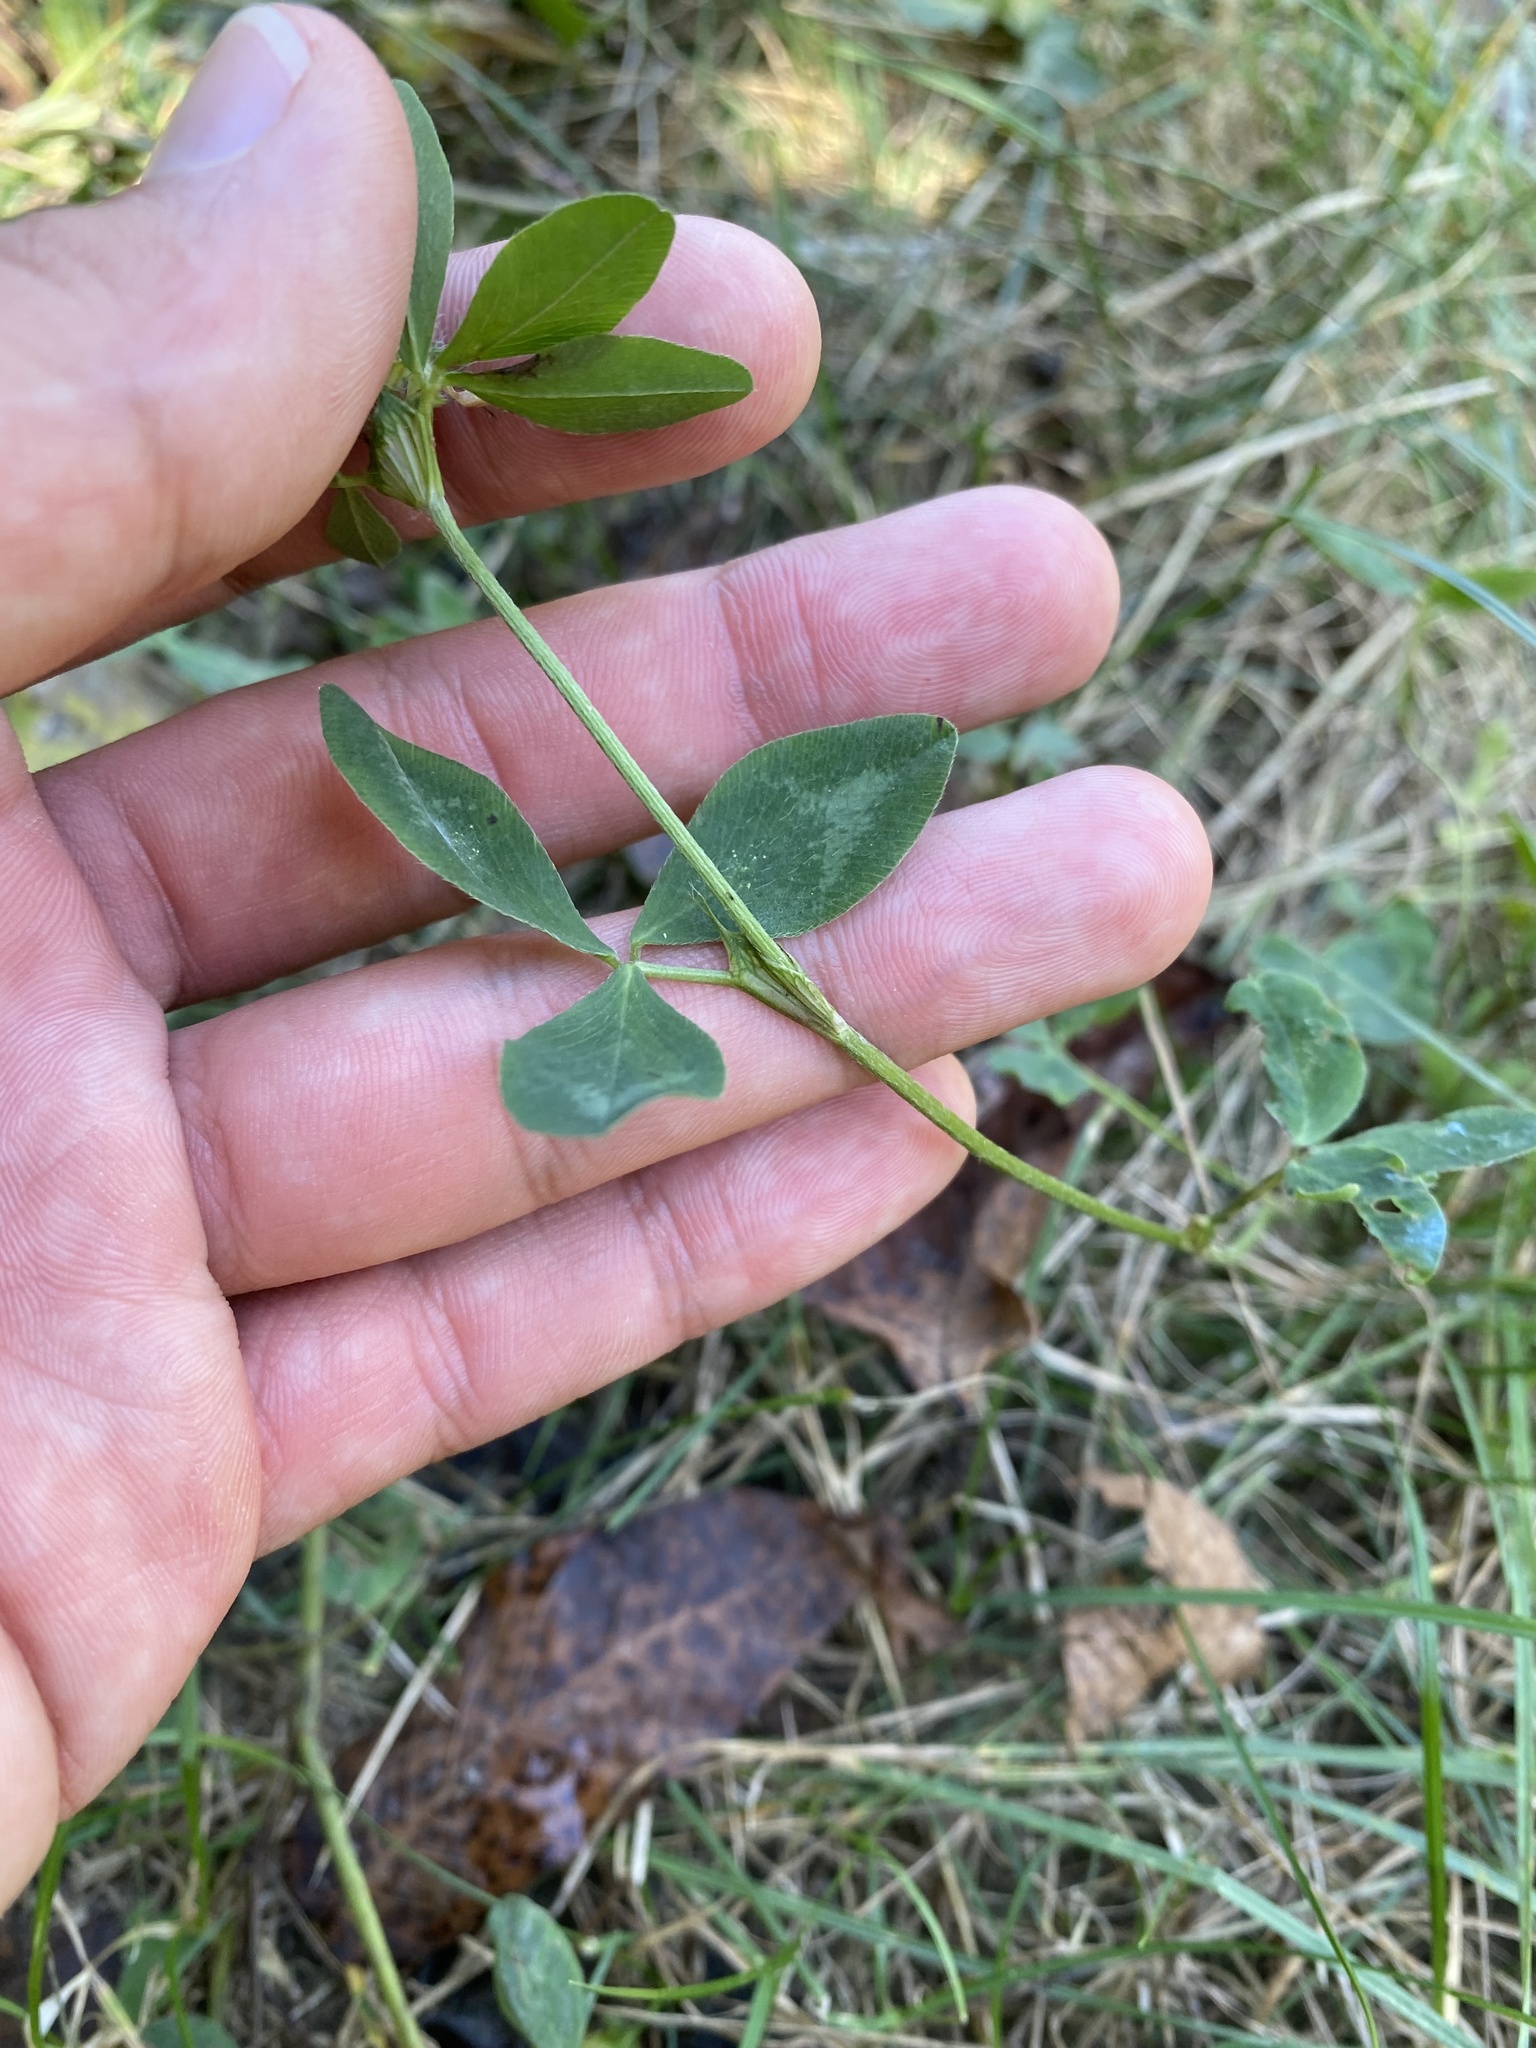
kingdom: Plantae
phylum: Tracheophyta
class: Magnoliopsida
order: Fabales
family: Fabaceae
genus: Trifolium
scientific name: Trifolium pratense
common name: Red clover
